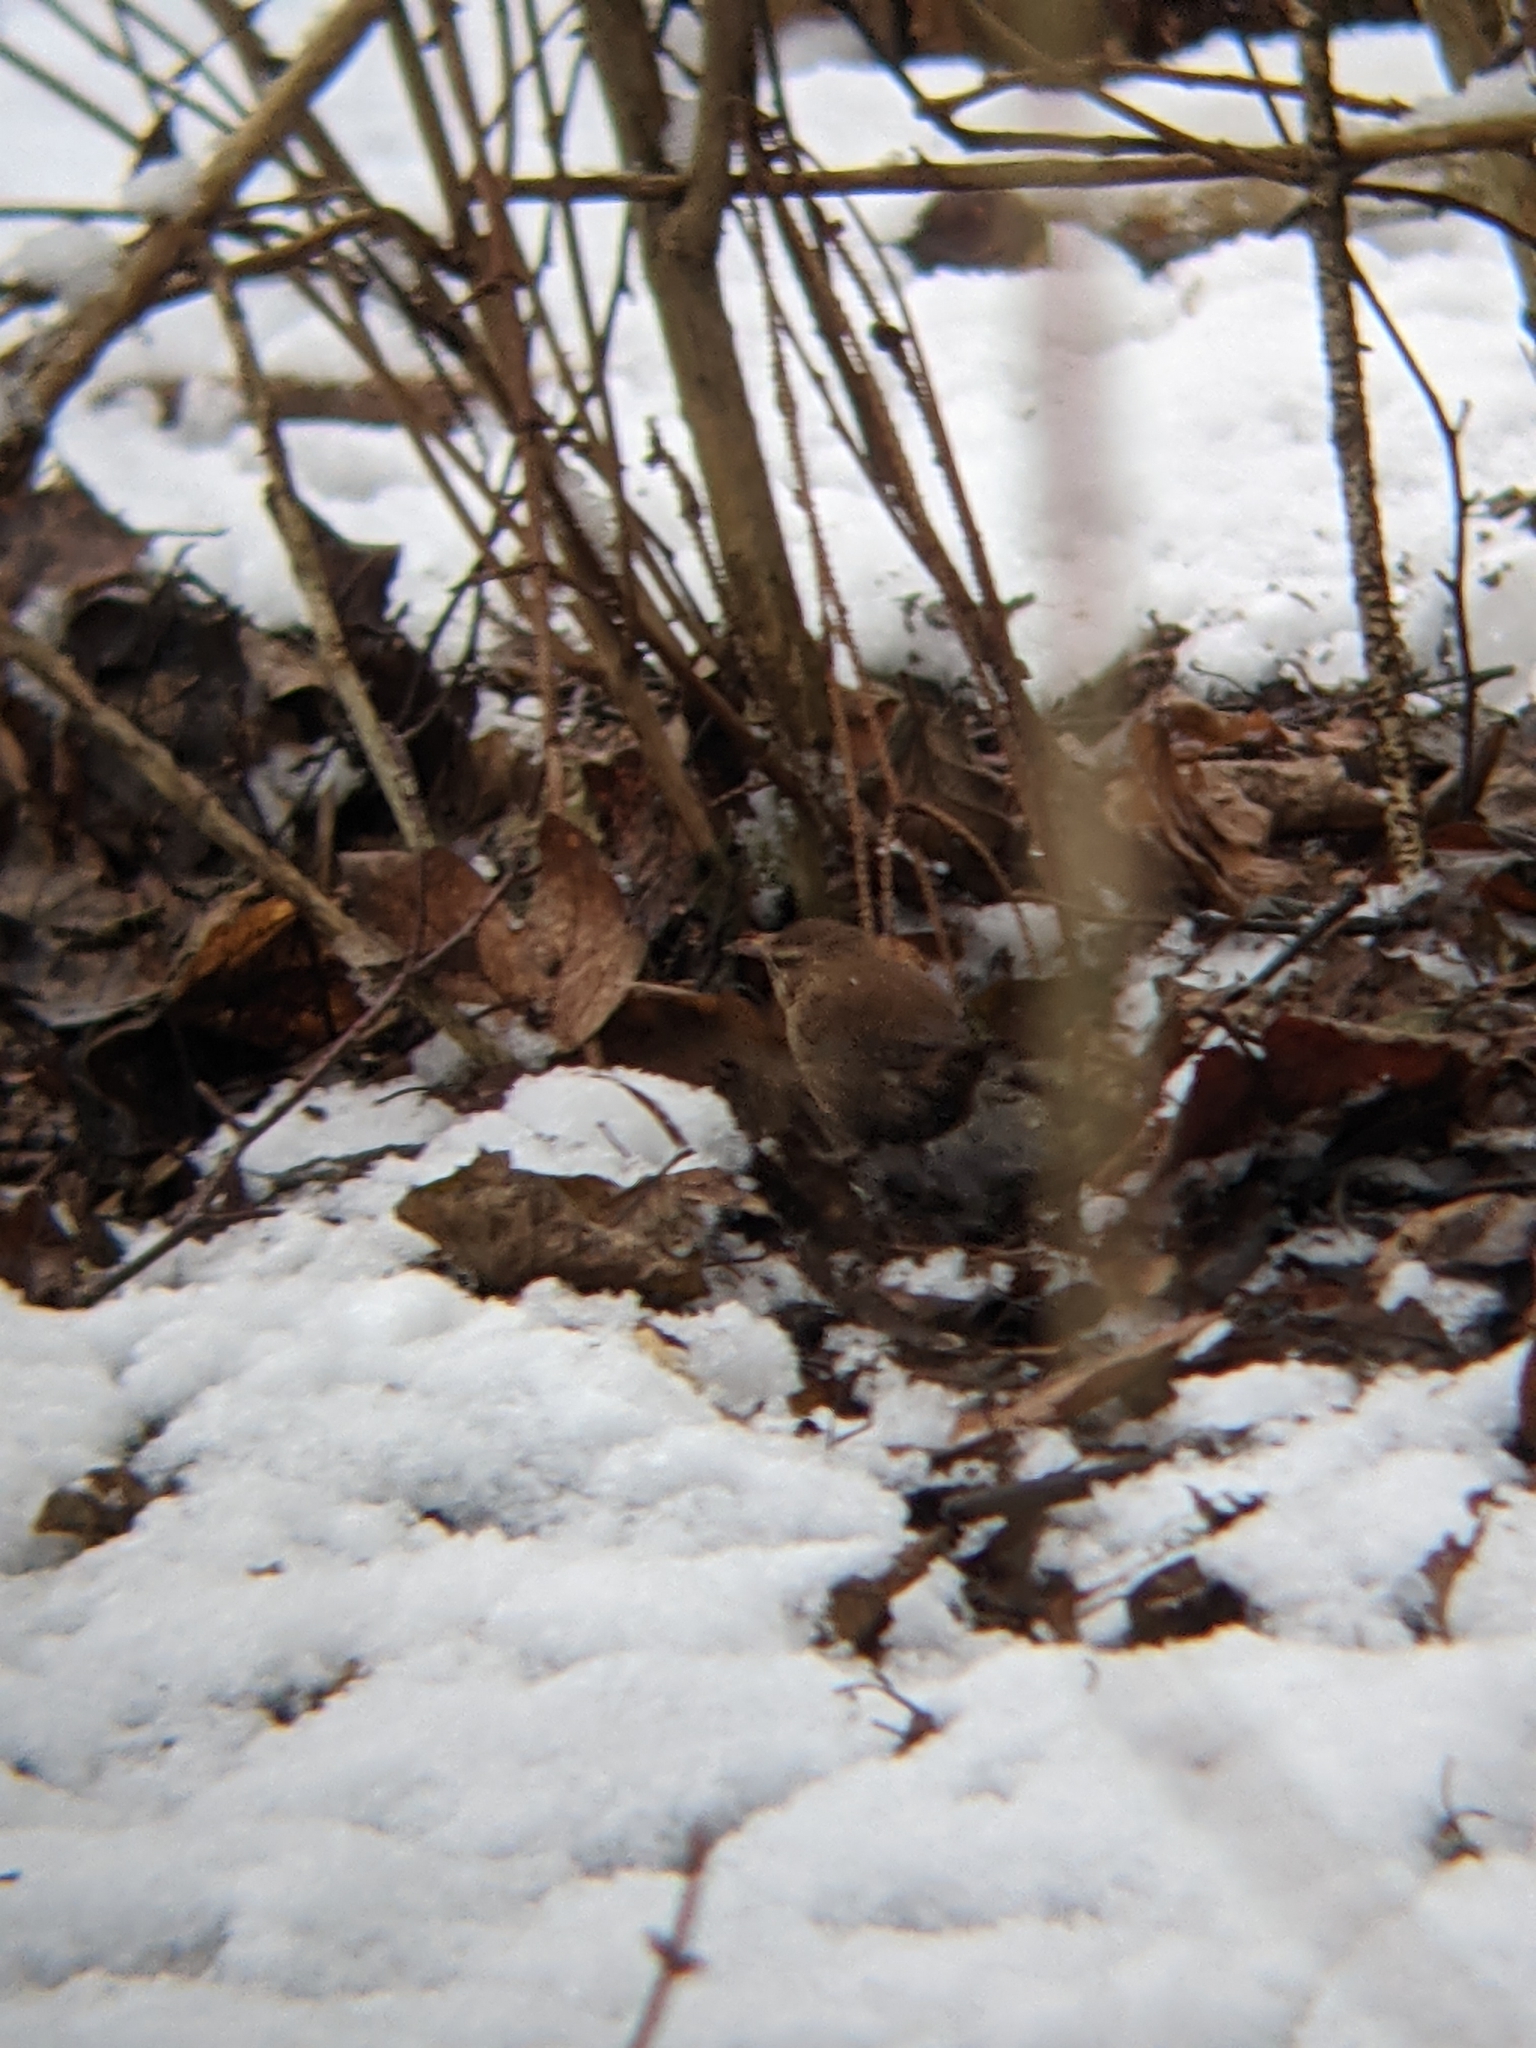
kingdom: Animalia
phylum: Chordata
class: Aves
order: Passeriformes
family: Troglodytidae
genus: Troglodytes
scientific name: Troglodytes troglodytes
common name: Eurasian wren
